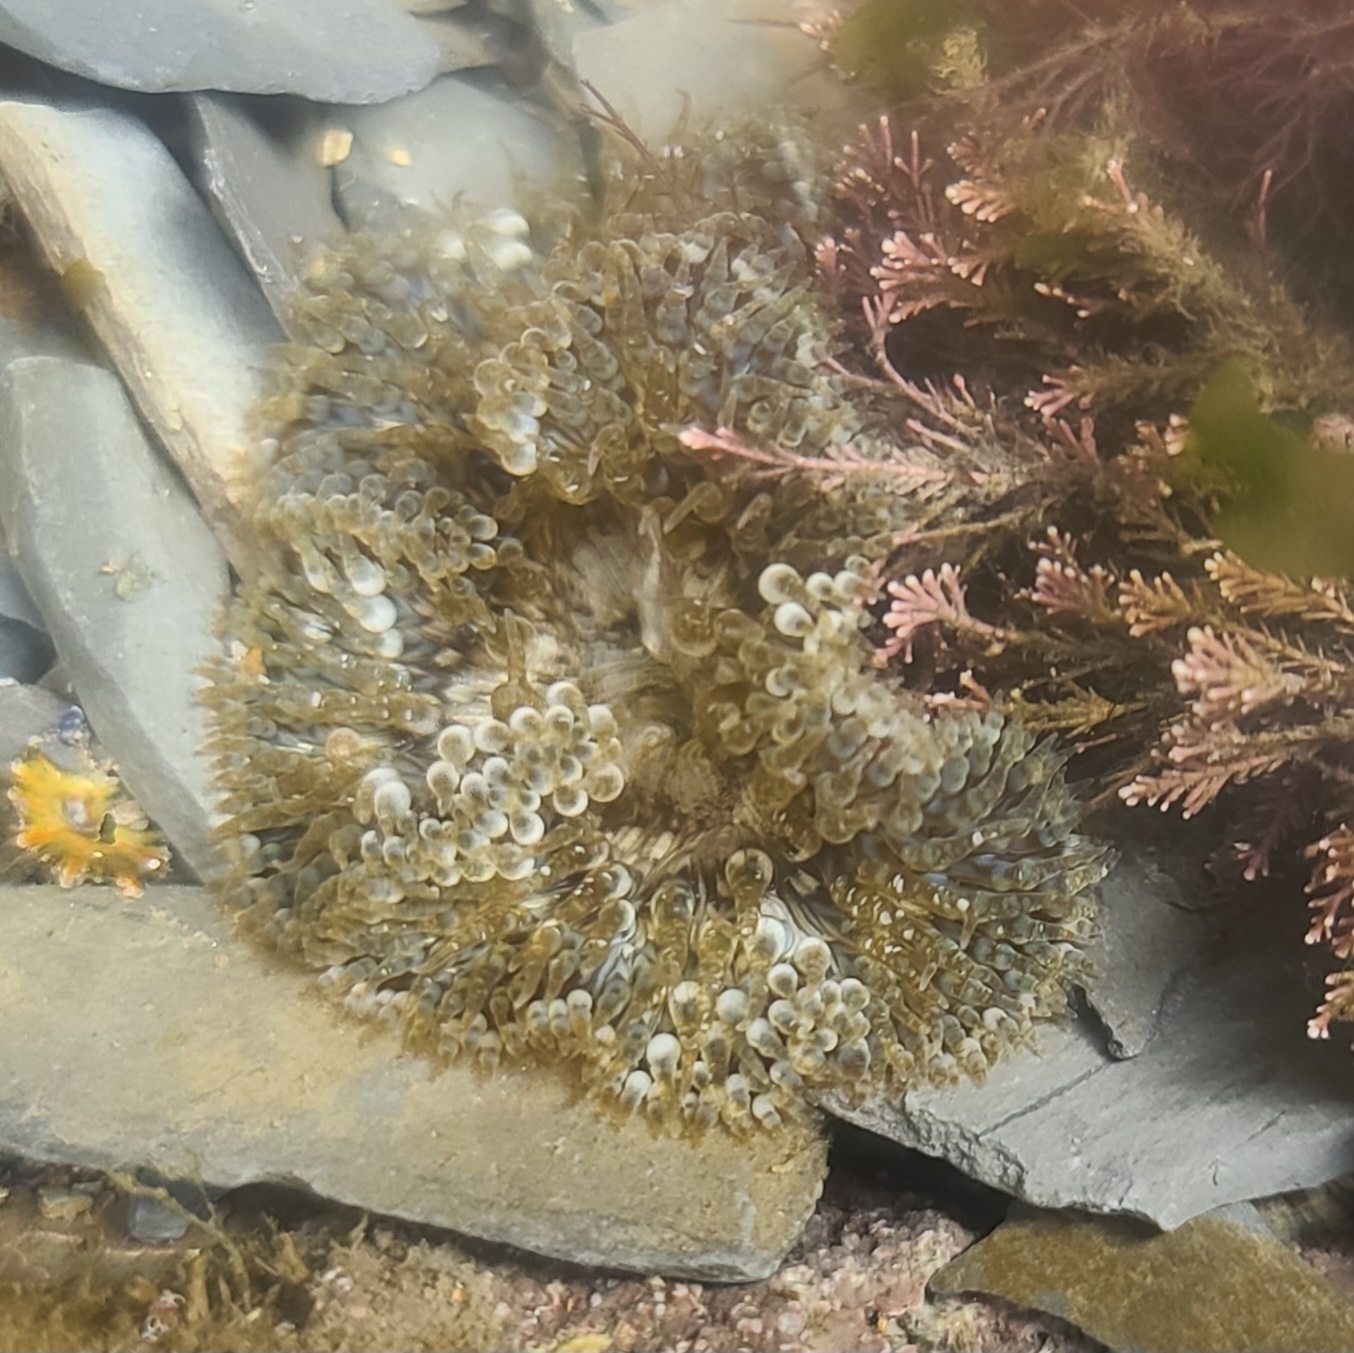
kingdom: Animalia
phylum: Cnidaria
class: Anthozoa
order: Actiniaria
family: Sagartiidae
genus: Cereus
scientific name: Cereus pedunculatus
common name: Daisy anemone
